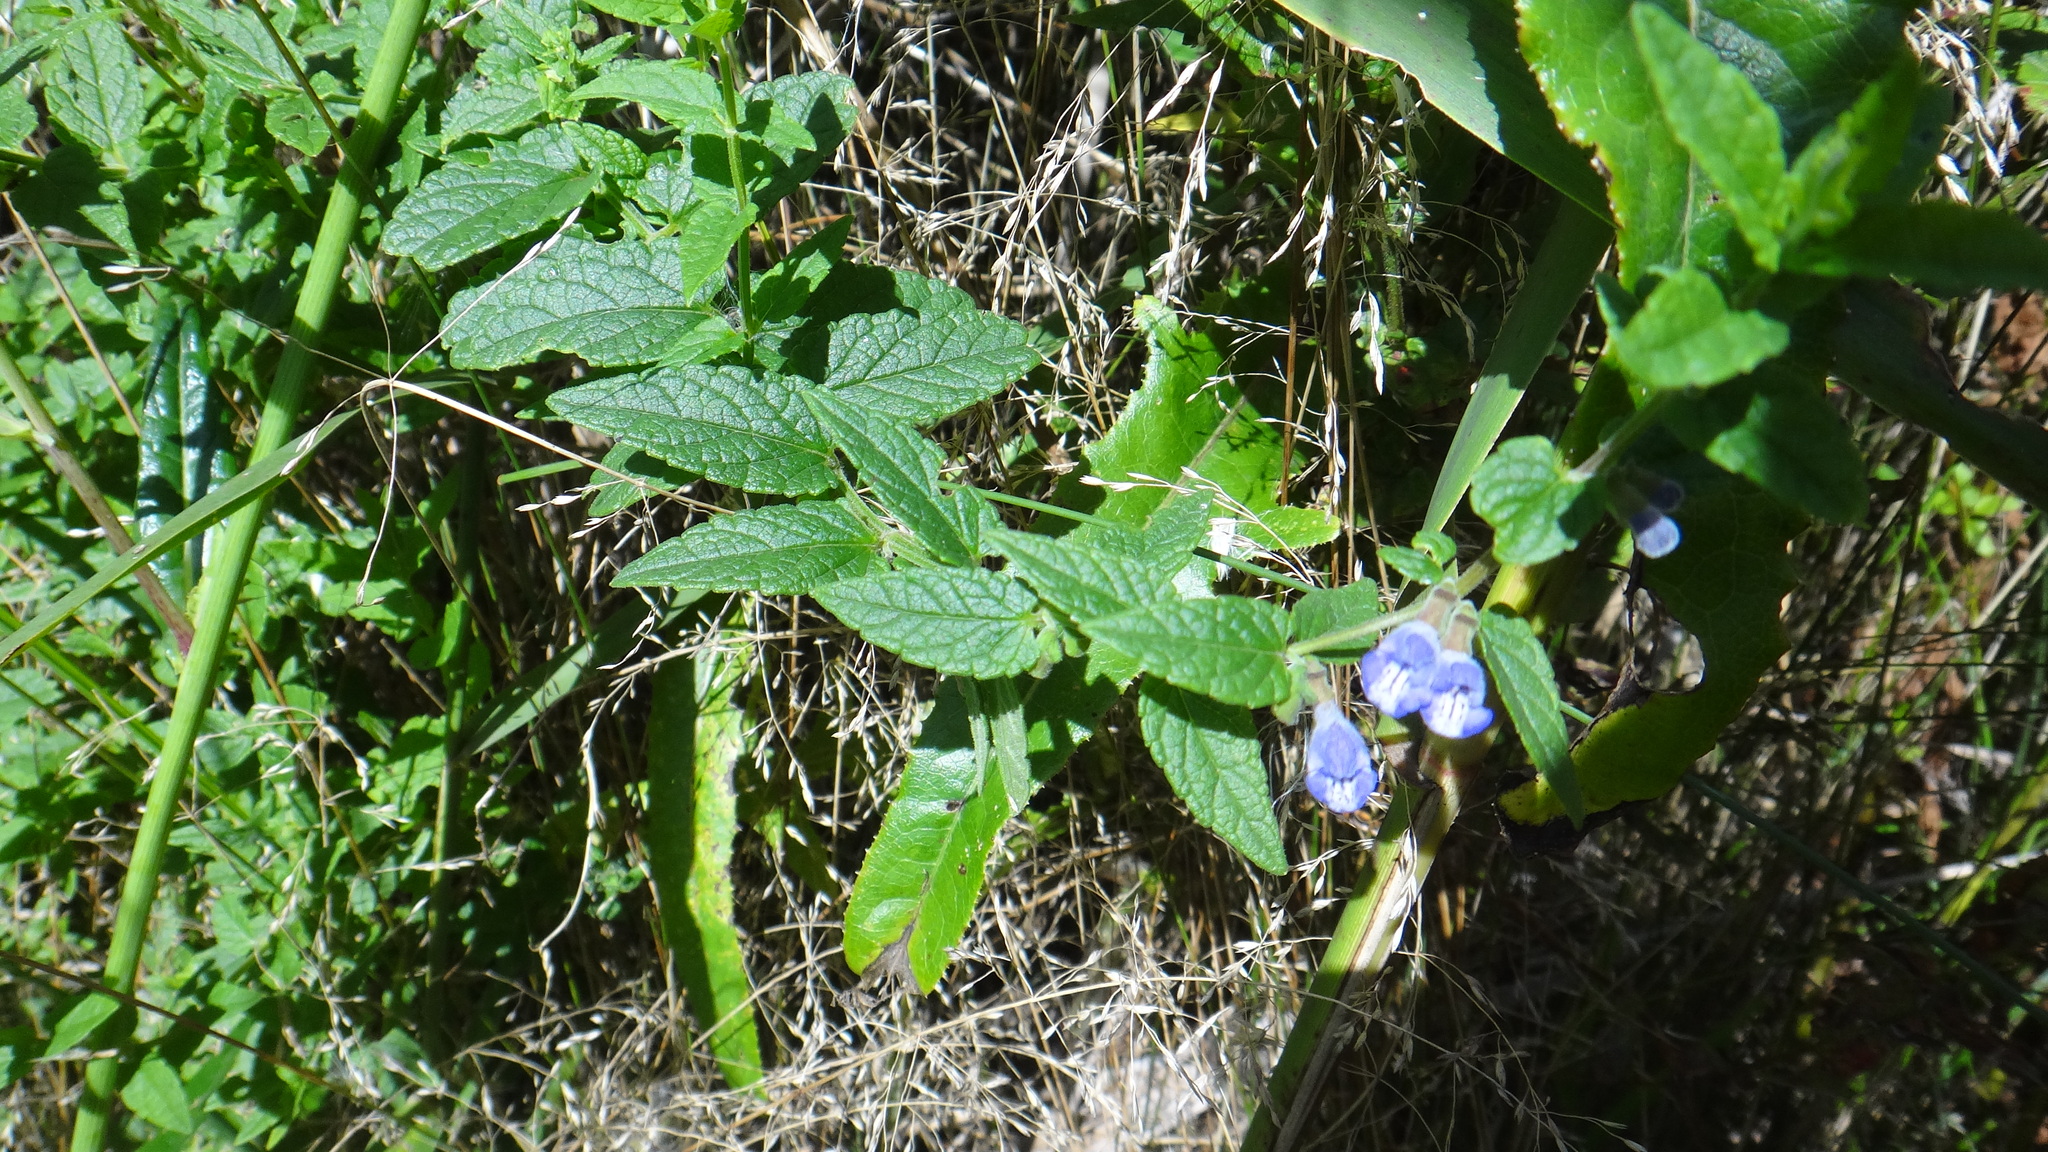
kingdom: Plantae
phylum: Tracheophyta
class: Magnoliopsida
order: Lamiales
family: Lamiaceae
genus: Scutellaria
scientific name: Scutellaria galericulata
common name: Skullcap
